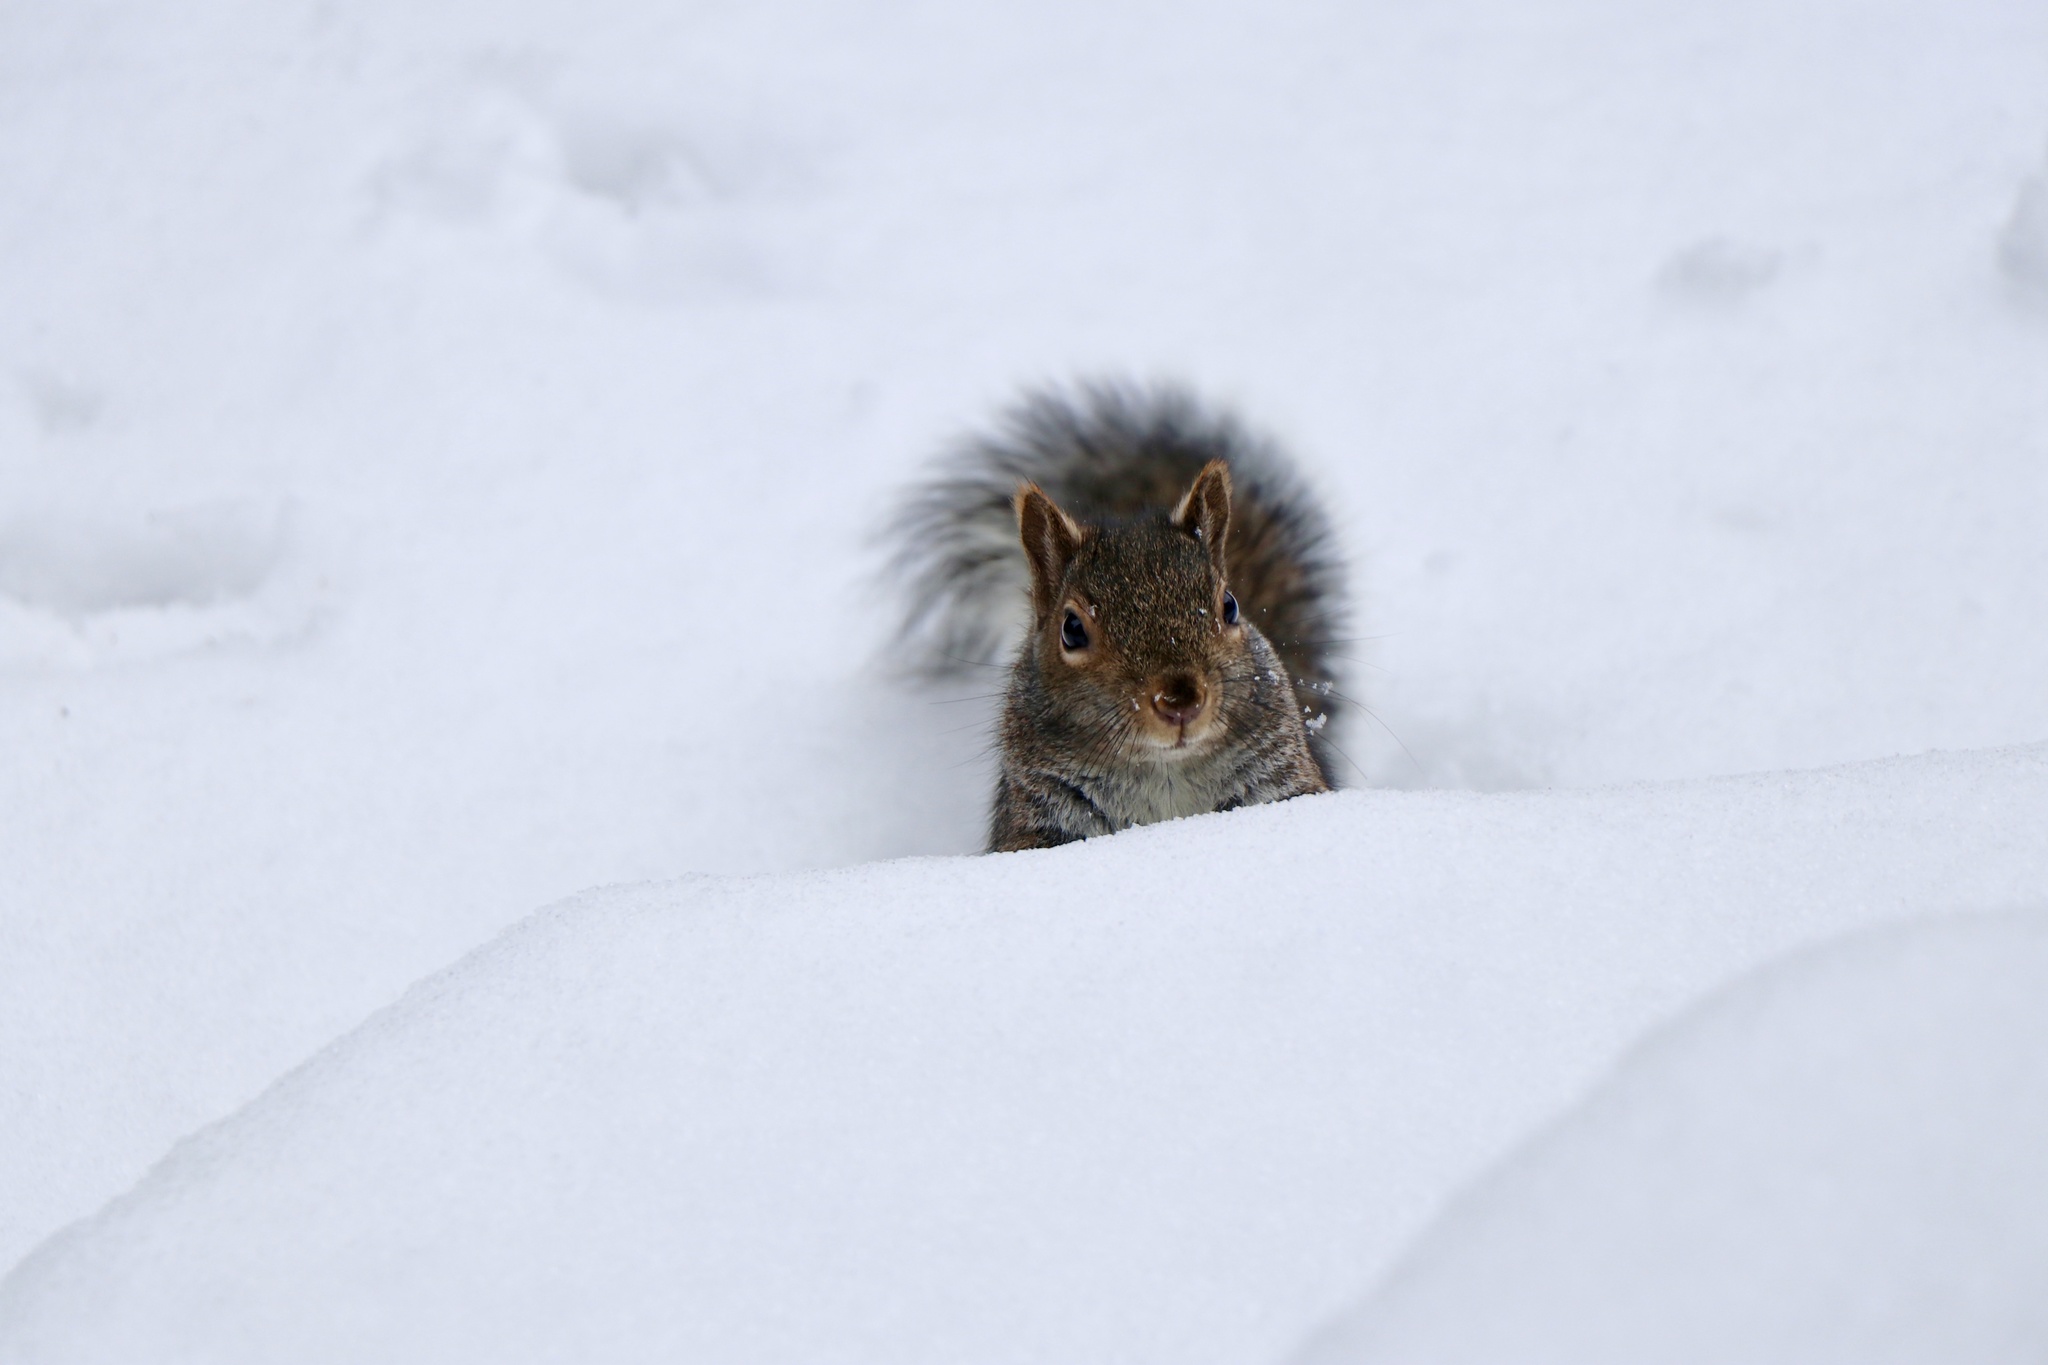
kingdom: Animalia
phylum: Chordata
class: Mammalia
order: Rodentia
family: Sciuridae
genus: Sciurus
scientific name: Sciurus carolinensis
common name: Eastern gray squirrel
